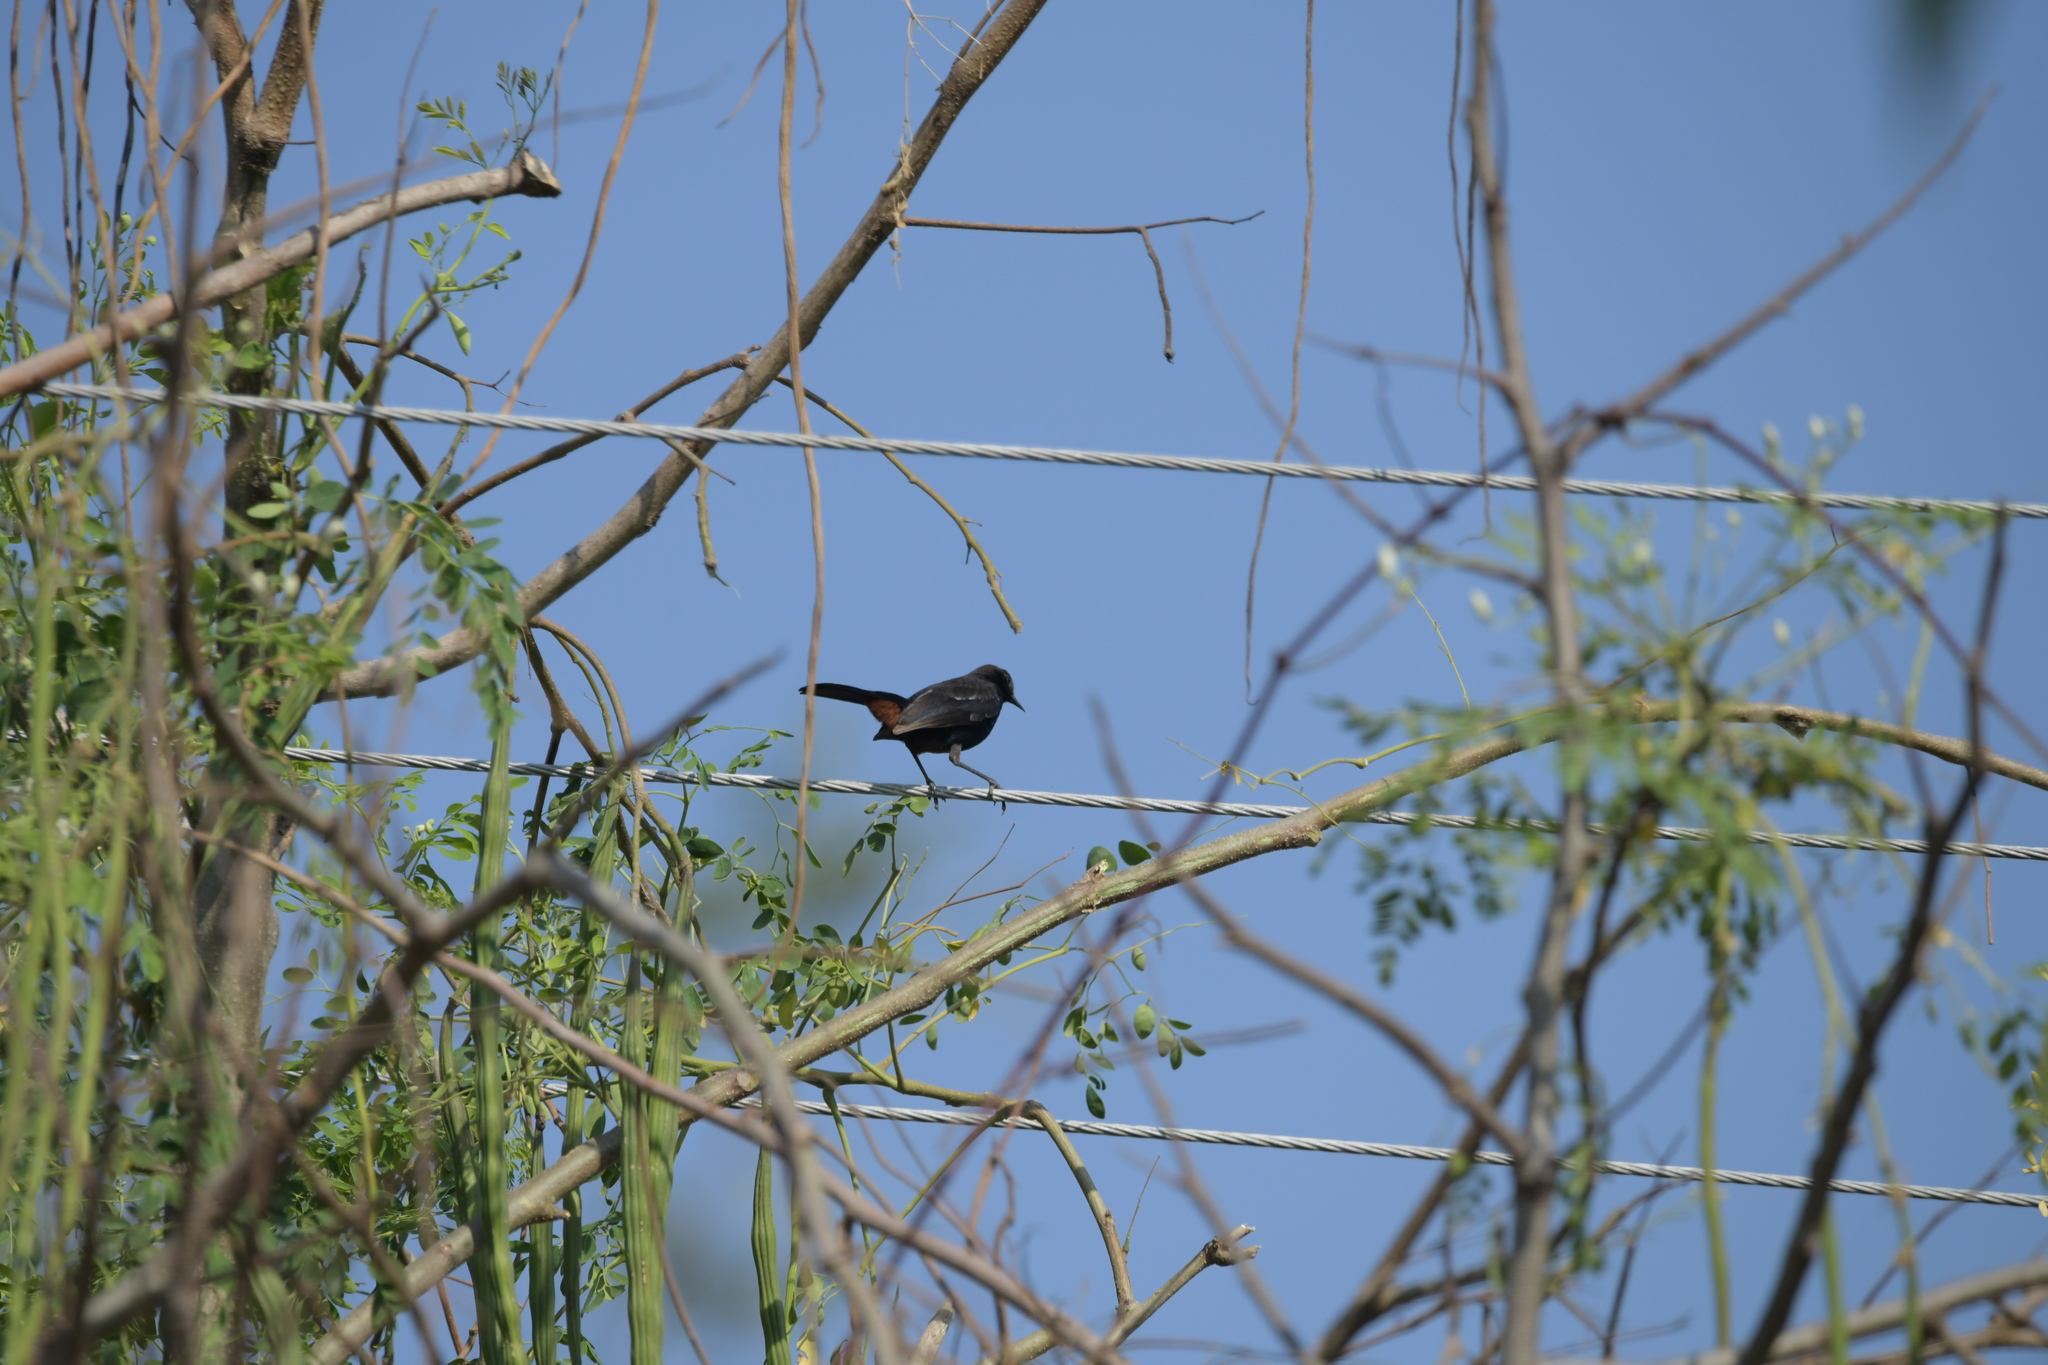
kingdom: Animalia
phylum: Chordata
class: Aves
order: Passeriformes
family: Muscicapidae
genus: Saxicoloides
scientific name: Saxicoloides fulicatus
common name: Indian robin
